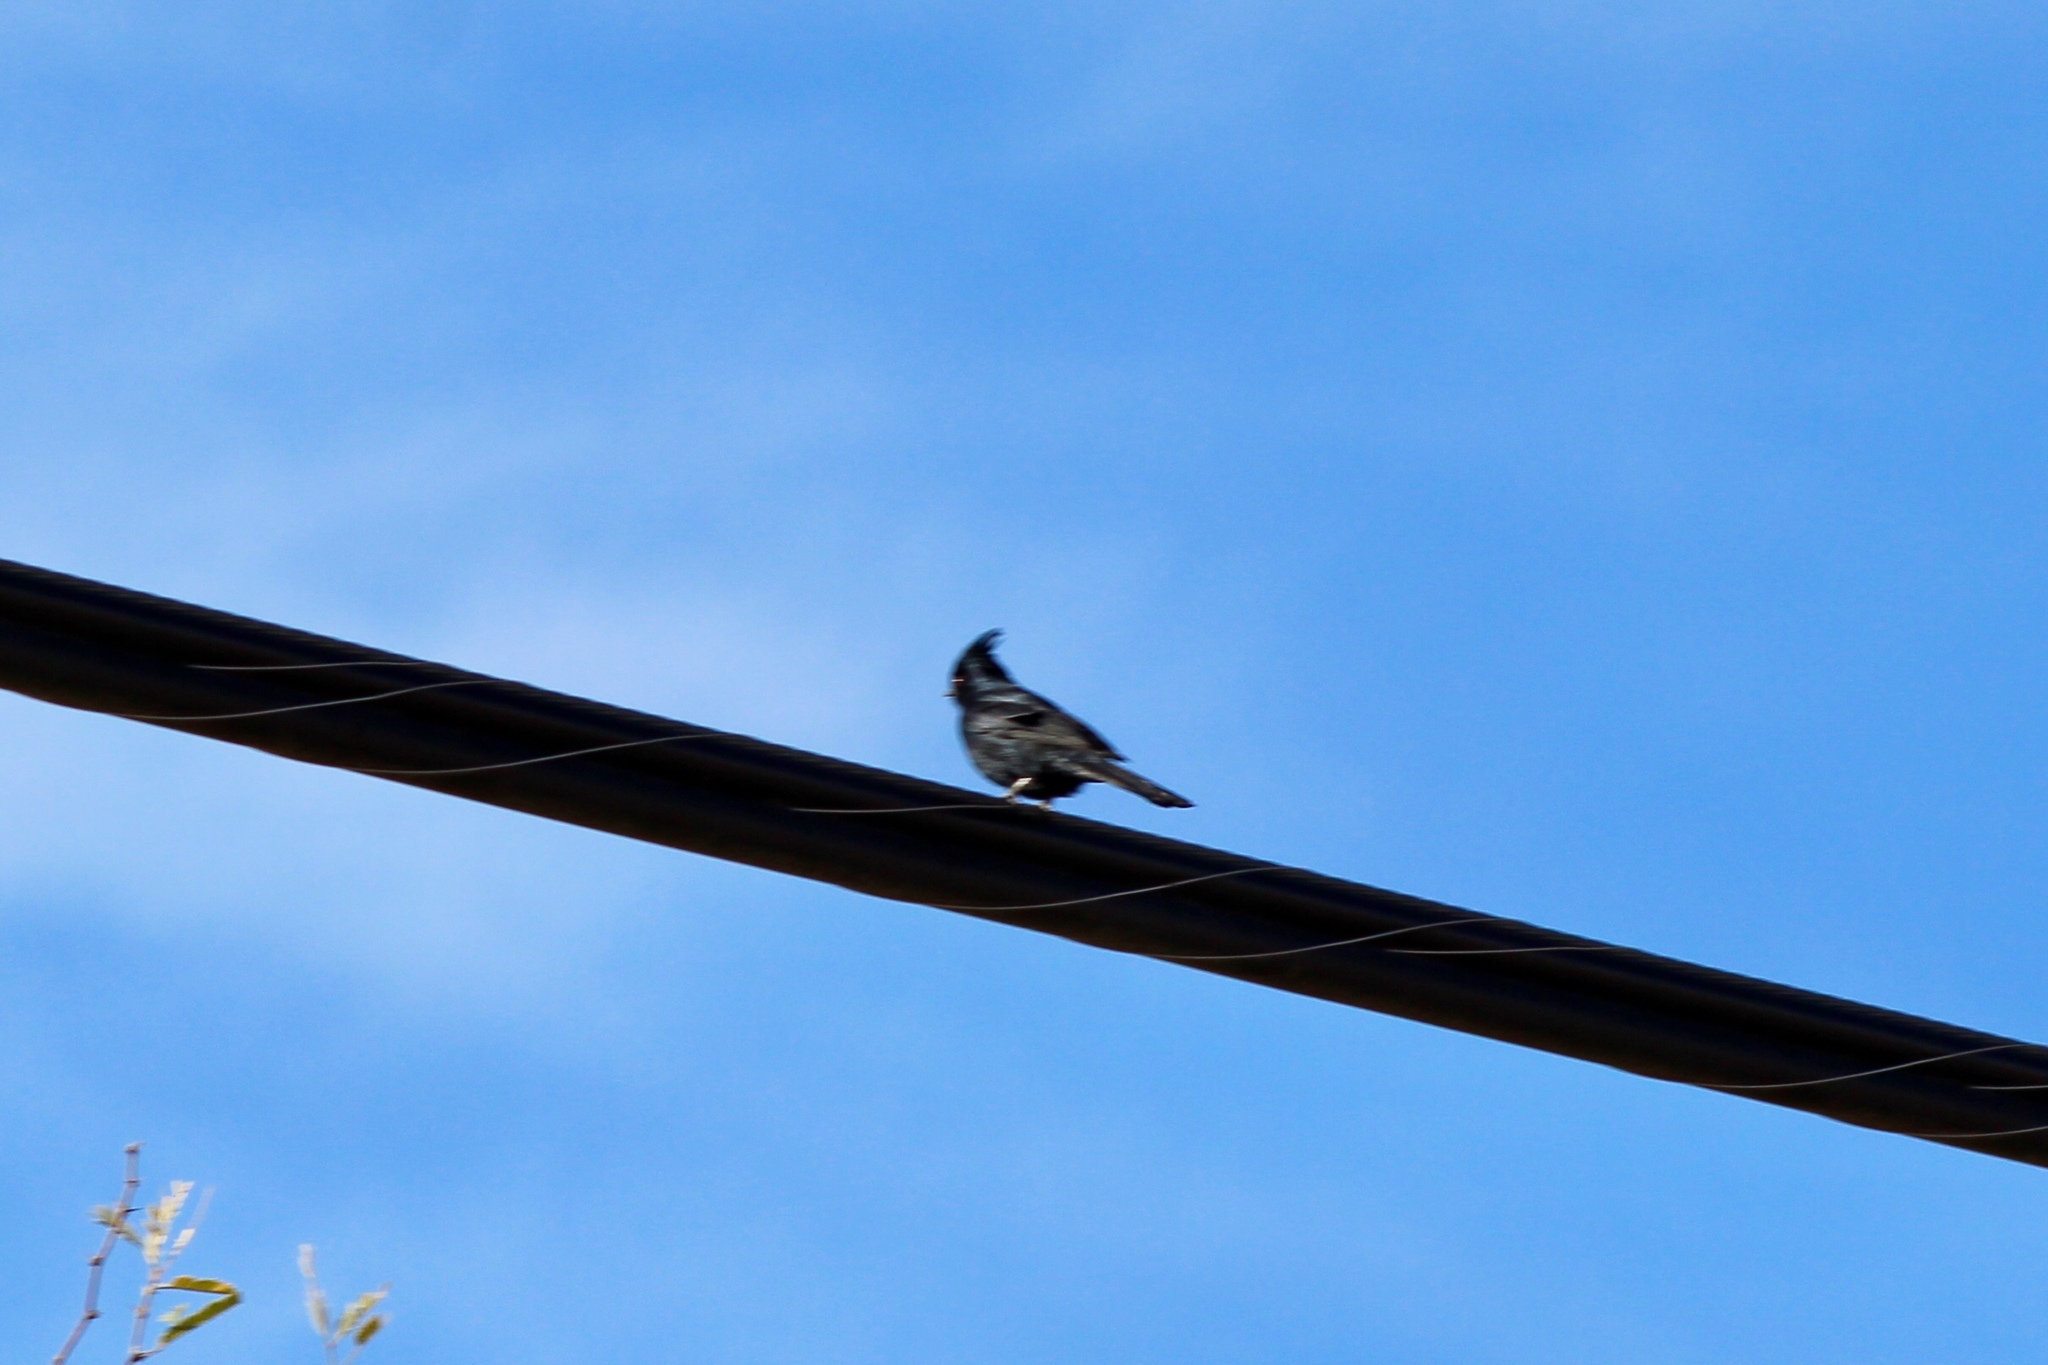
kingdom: Animalia
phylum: Chordata
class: Aves
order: Passeriformes
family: Ptilogonatidae
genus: Phainopepla
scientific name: Phainopepla nitens
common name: Phainopepla
